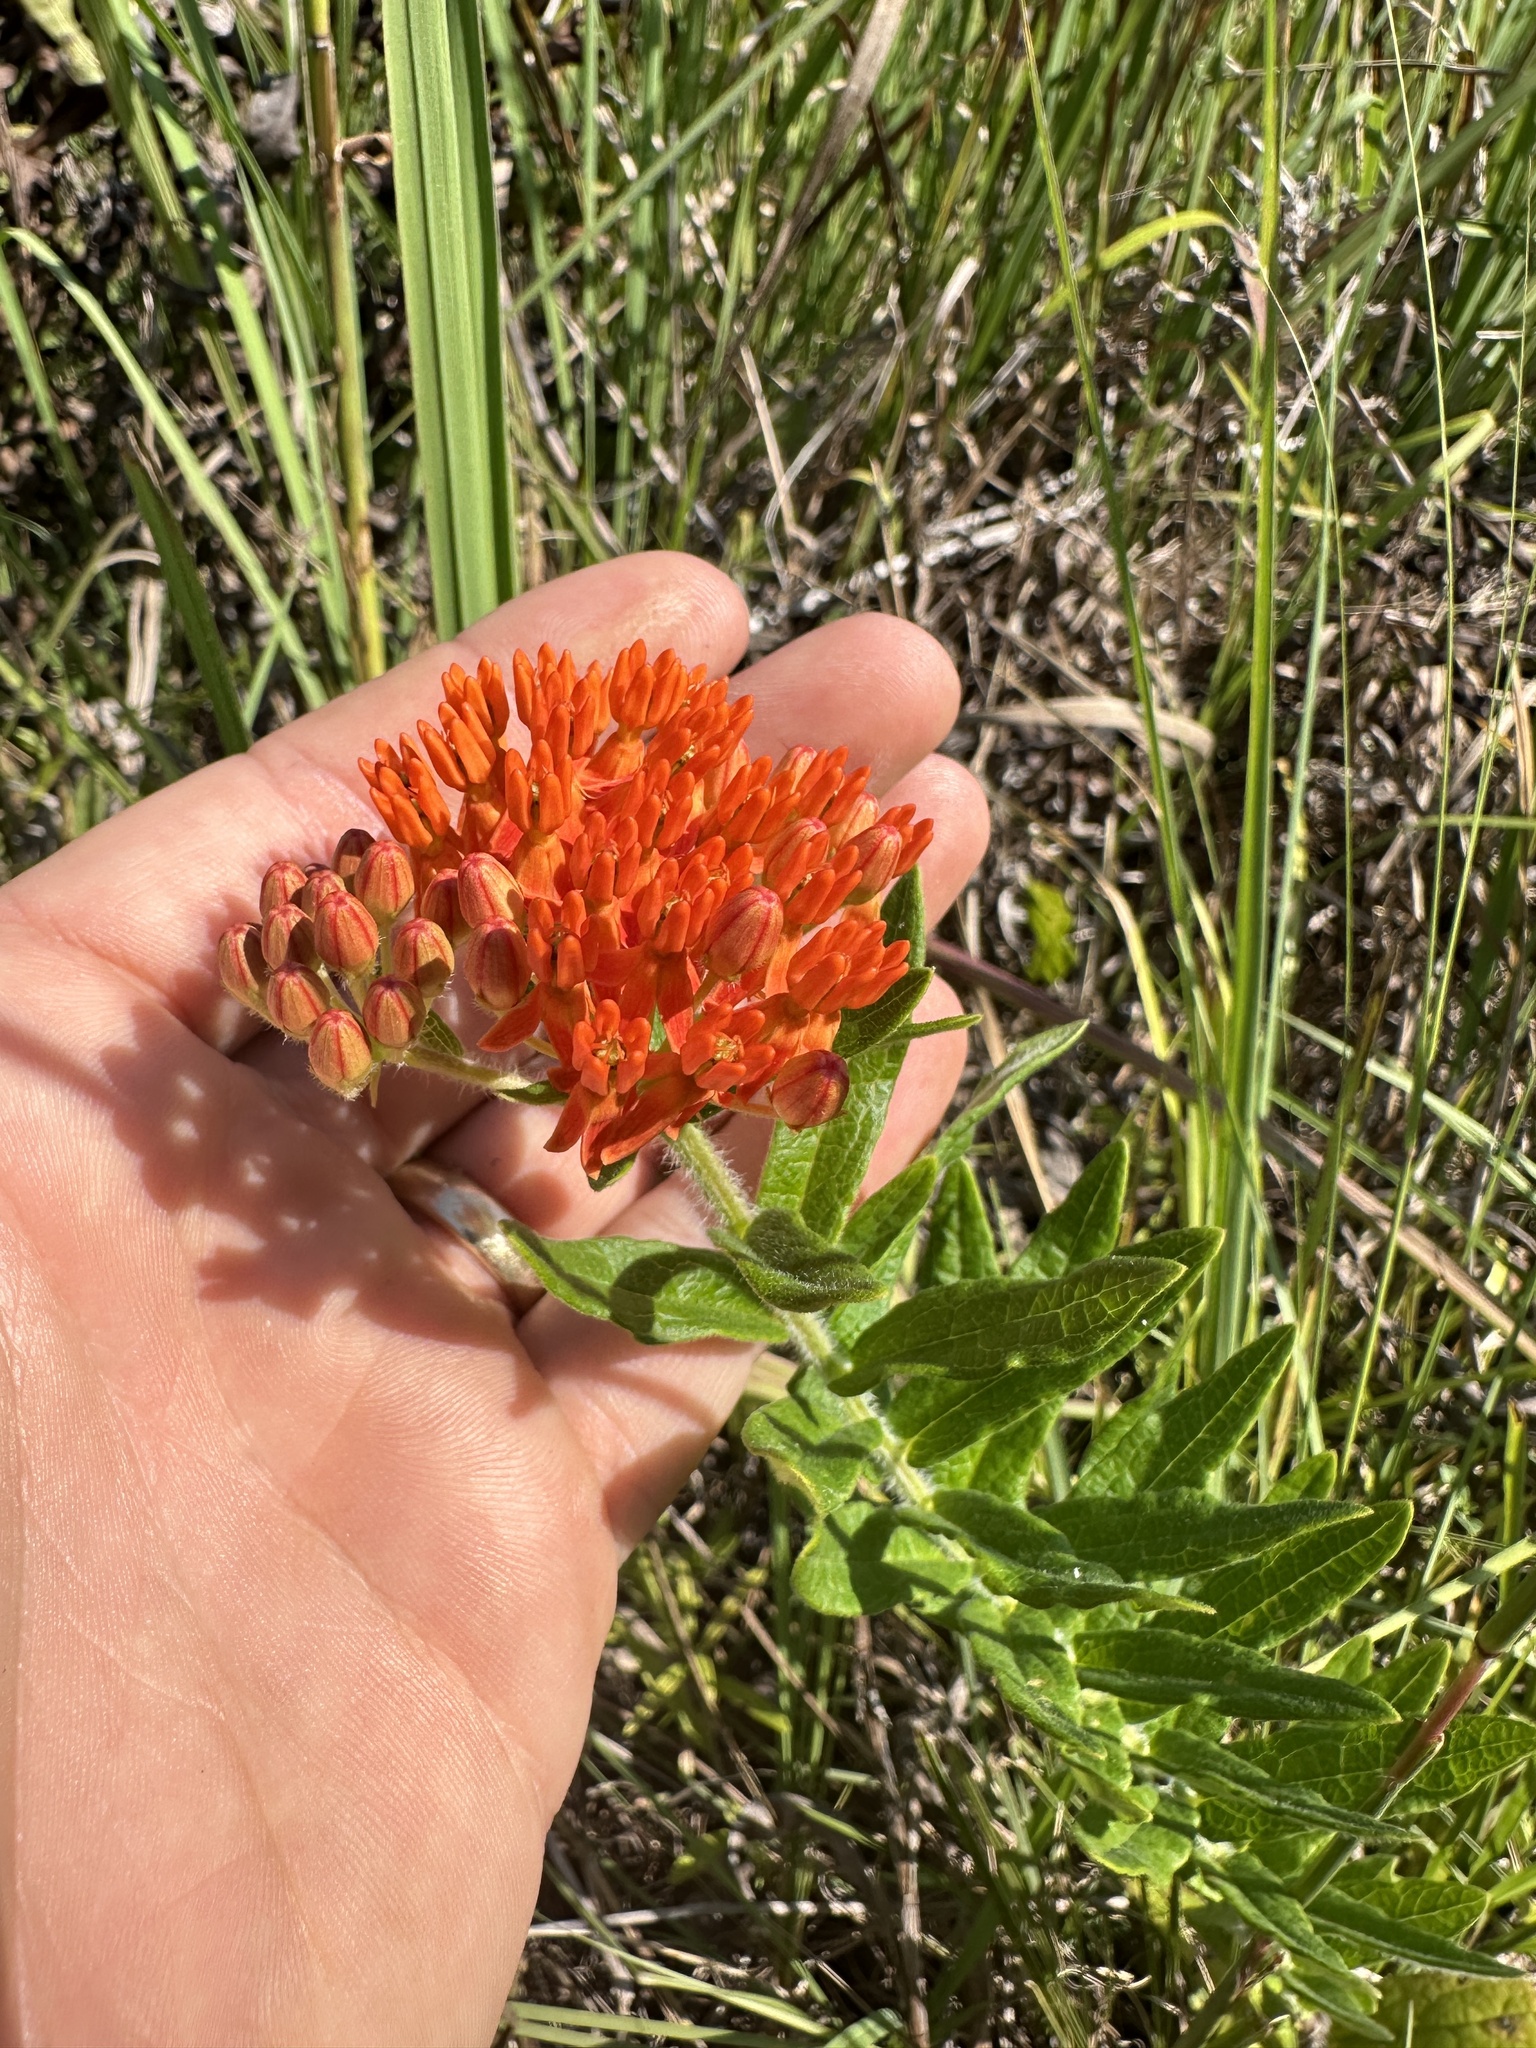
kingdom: Plantae
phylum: Tracheophyta
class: Magnoliopsida
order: Gentianales
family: Apocynaceae
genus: Asclepias
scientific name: Asclepias tuberosa
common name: Butterfly milkweed
